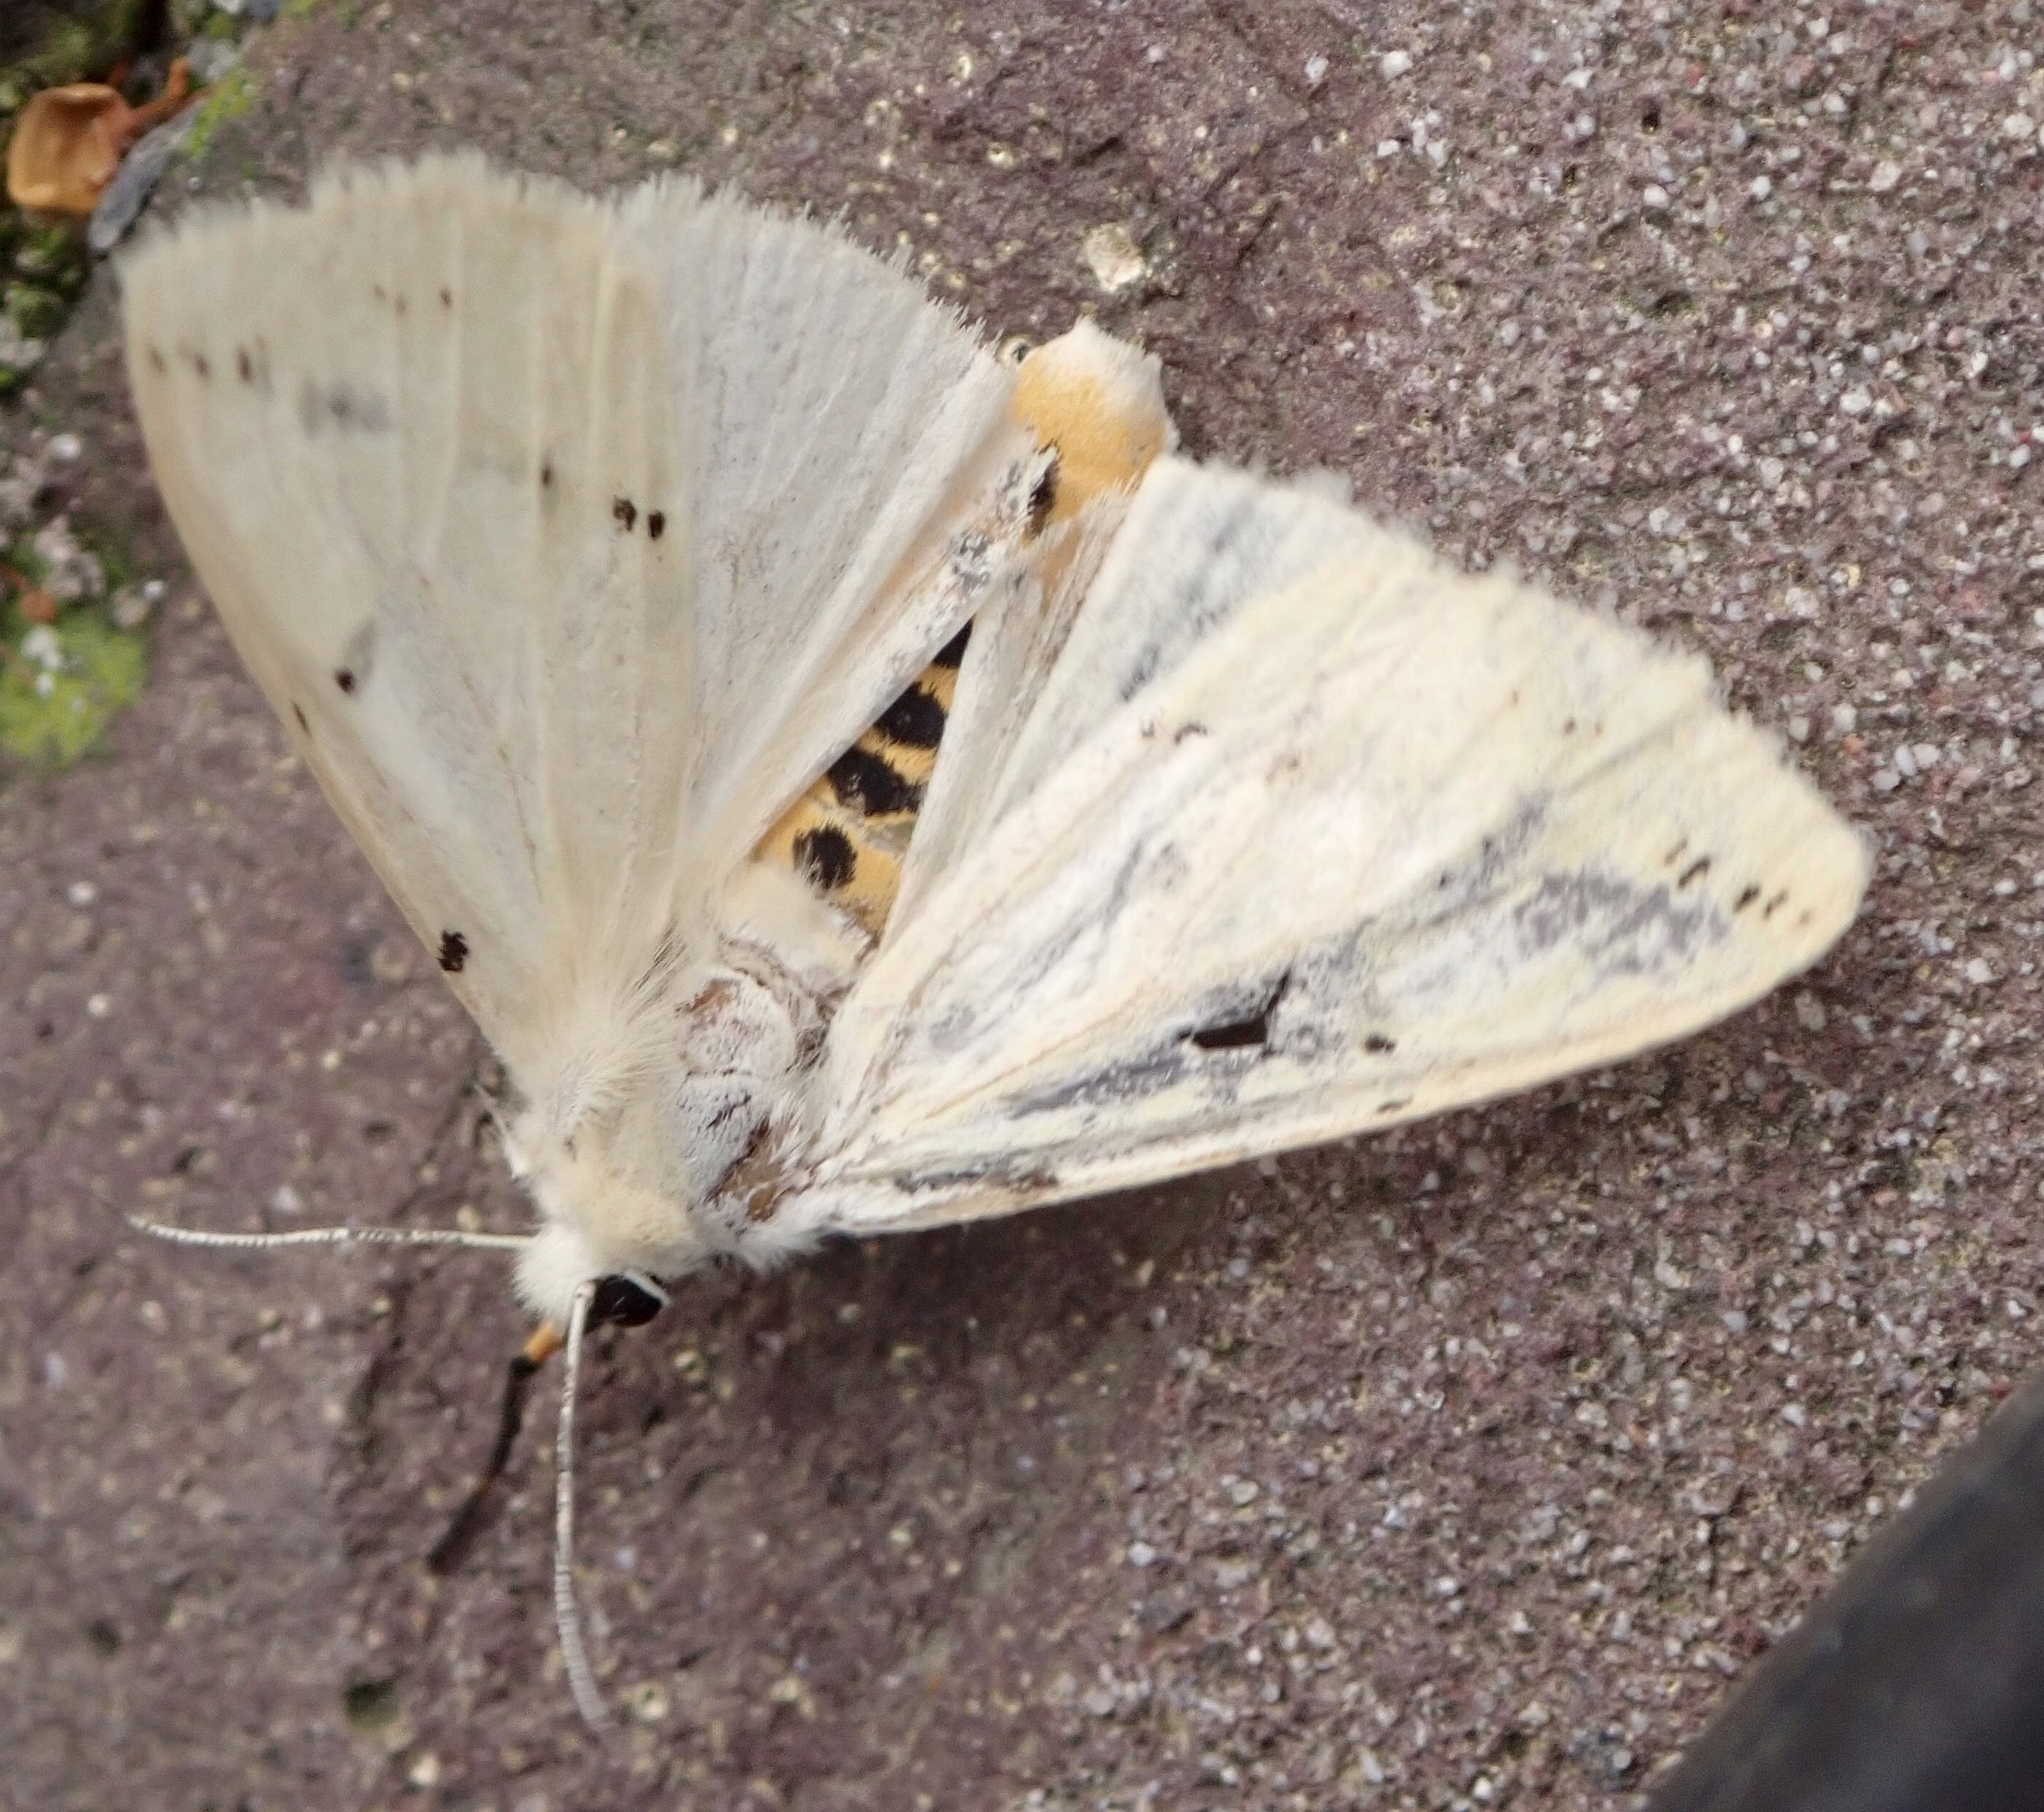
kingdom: Animalia
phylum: Arthropoda
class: Insecta
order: Lepidoptera
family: Erebidae
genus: Spilarctia
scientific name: Spilarctia lutea
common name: Buff ermine
